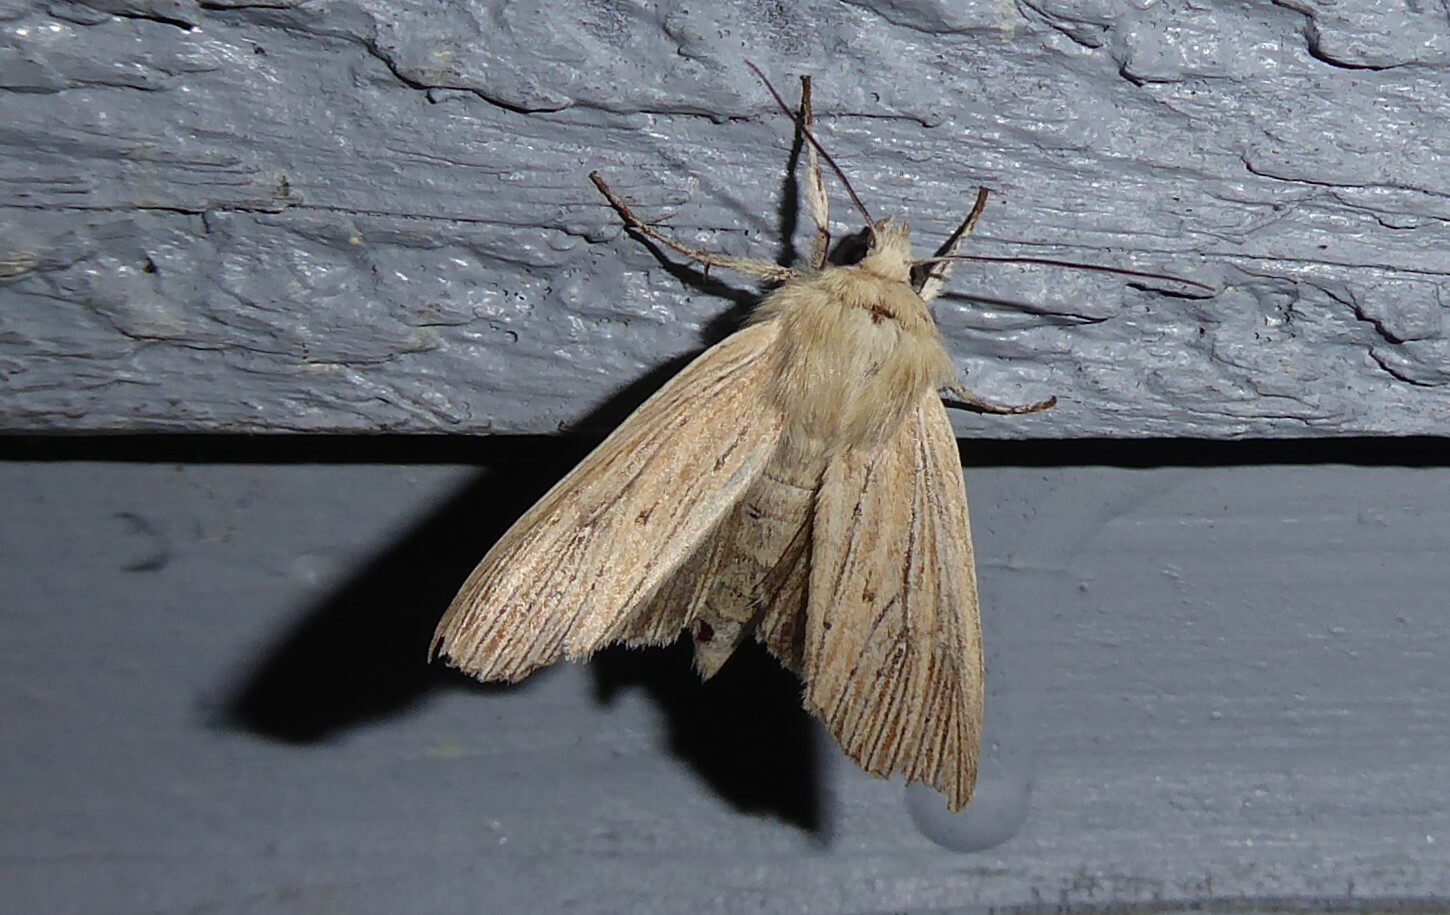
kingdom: Animalia
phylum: Arthropoda
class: Insecta
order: Lepidoptera
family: Noctuidae
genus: Ichneutica
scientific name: Ichneutica arotis
